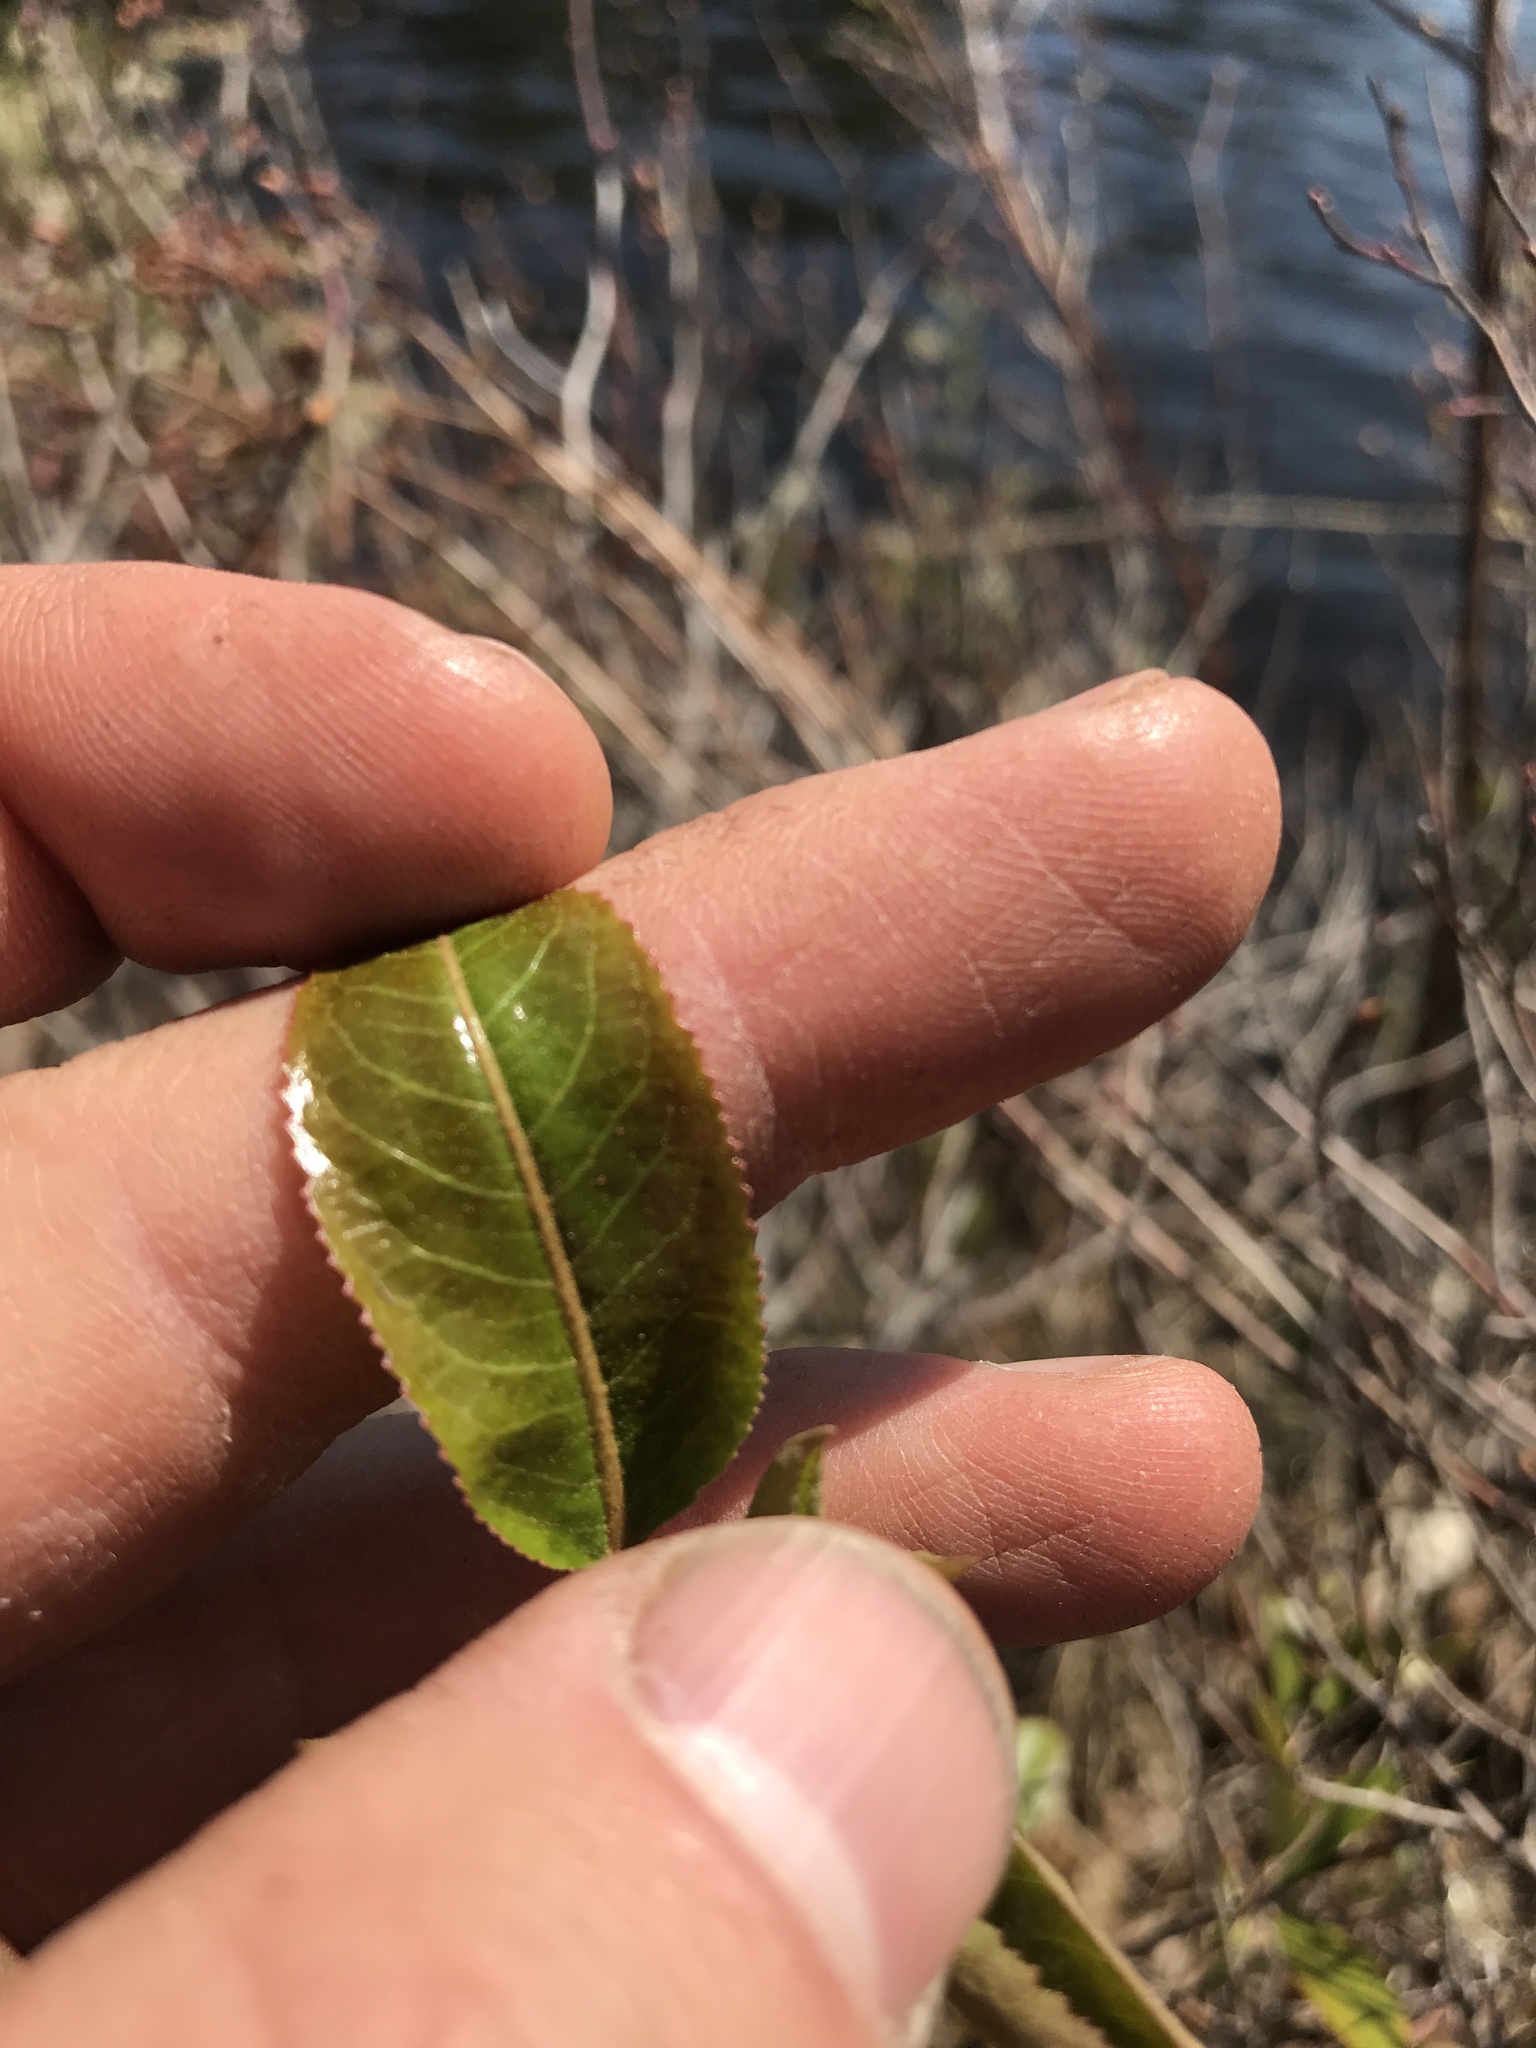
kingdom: Plantae
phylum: Tracheophyta
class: Magnoliopsida
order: Dipsacales
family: Viburnaceae
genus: Viburnum
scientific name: Viburnum lentago
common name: Black haw
